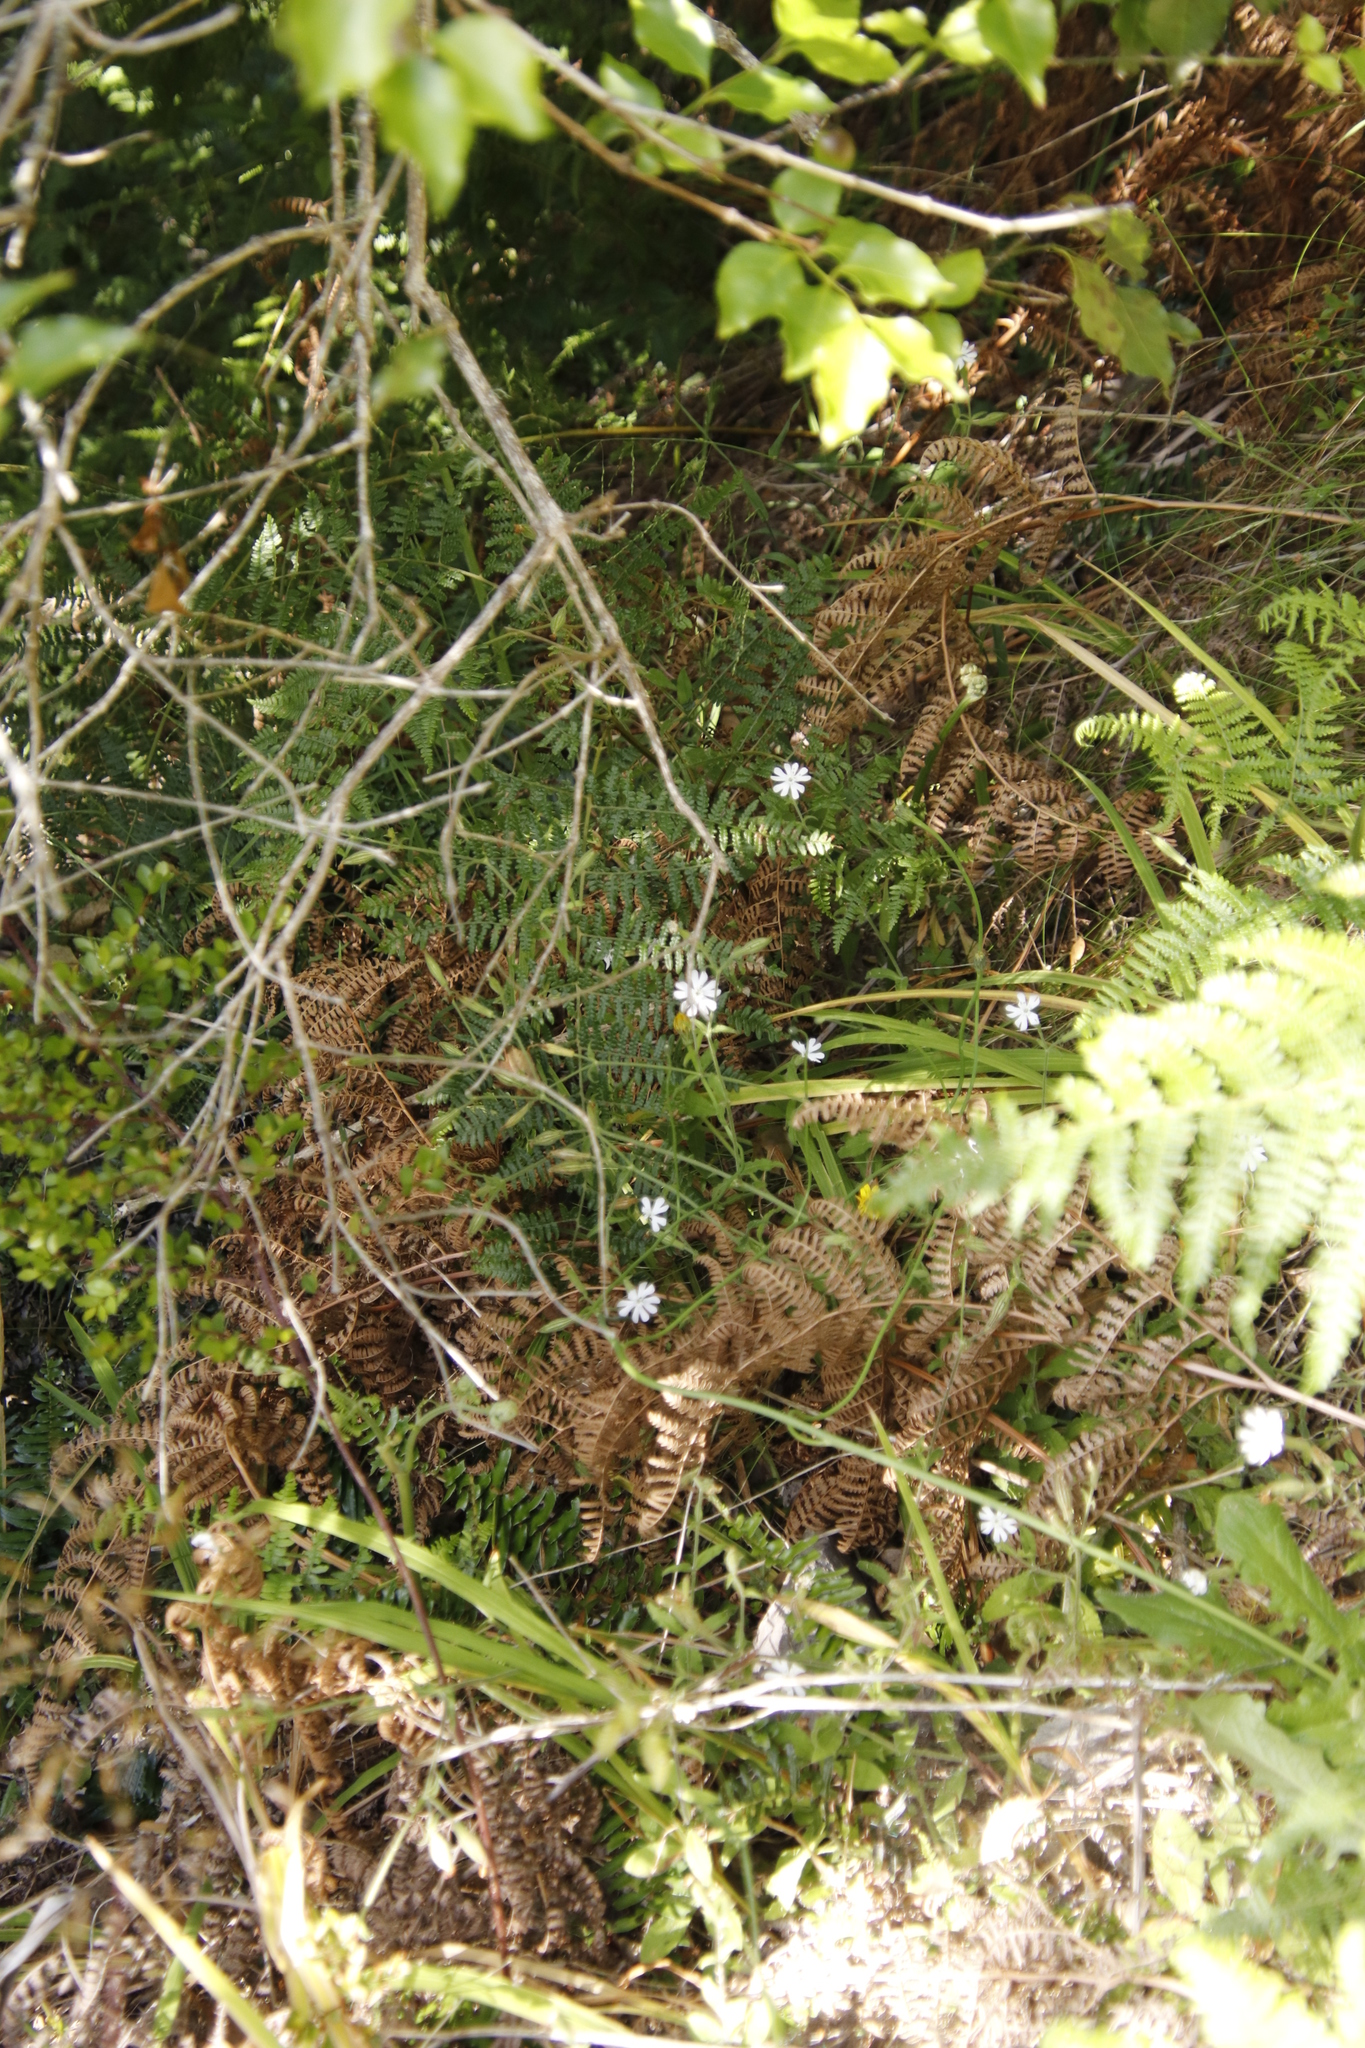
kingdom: Plantae
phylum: Tracheophyta
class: Magnoliopsida
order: Caryophyllales
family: Caryophyllaceae
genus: Silene
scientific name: Silene undulata
